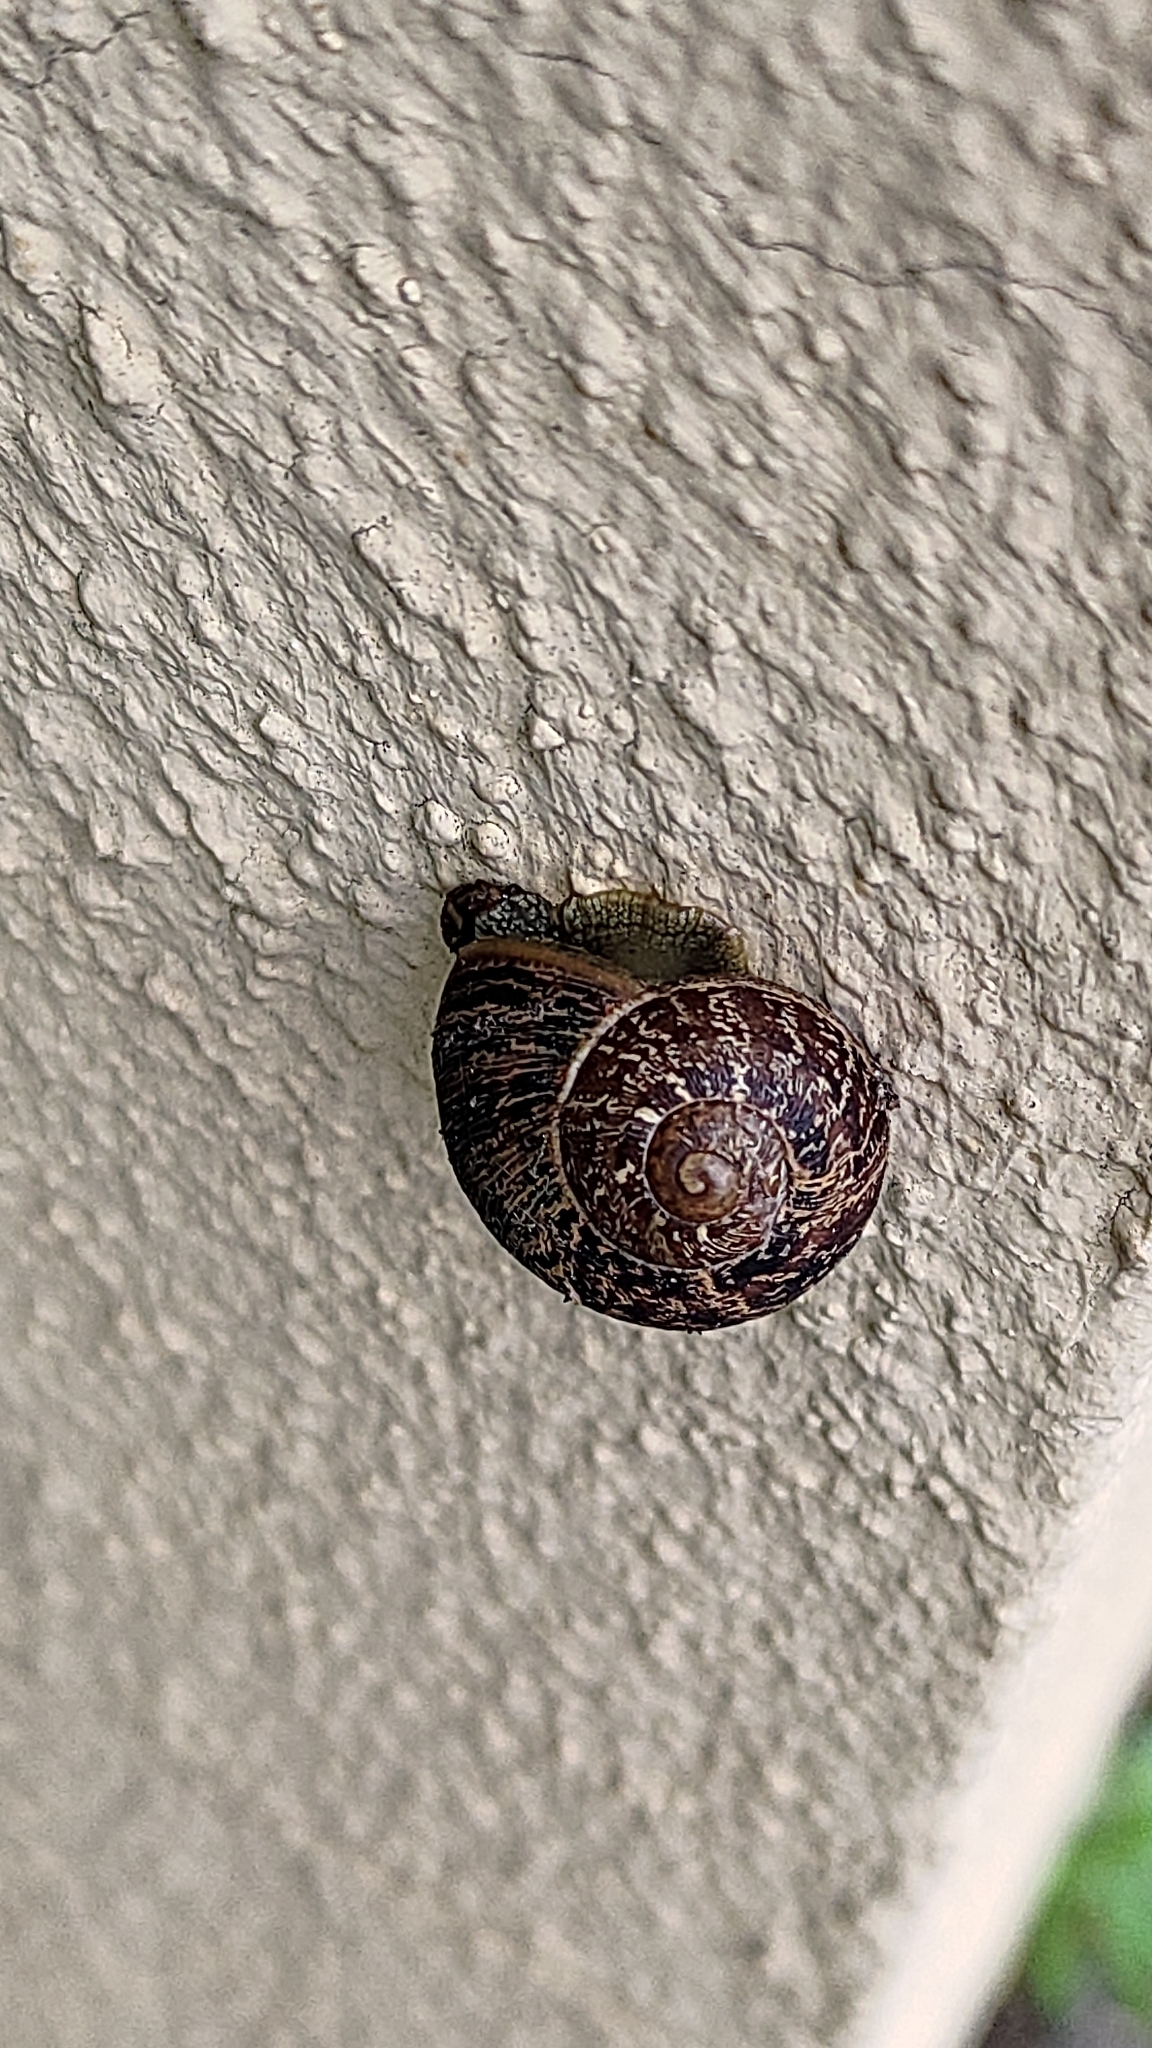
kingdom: Animalia
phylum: Mollusca
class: Gastropoda
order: Stylommatophora
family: Helicidae
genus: Cornu
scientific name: Cornu aspersum
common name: Brown garden snail
